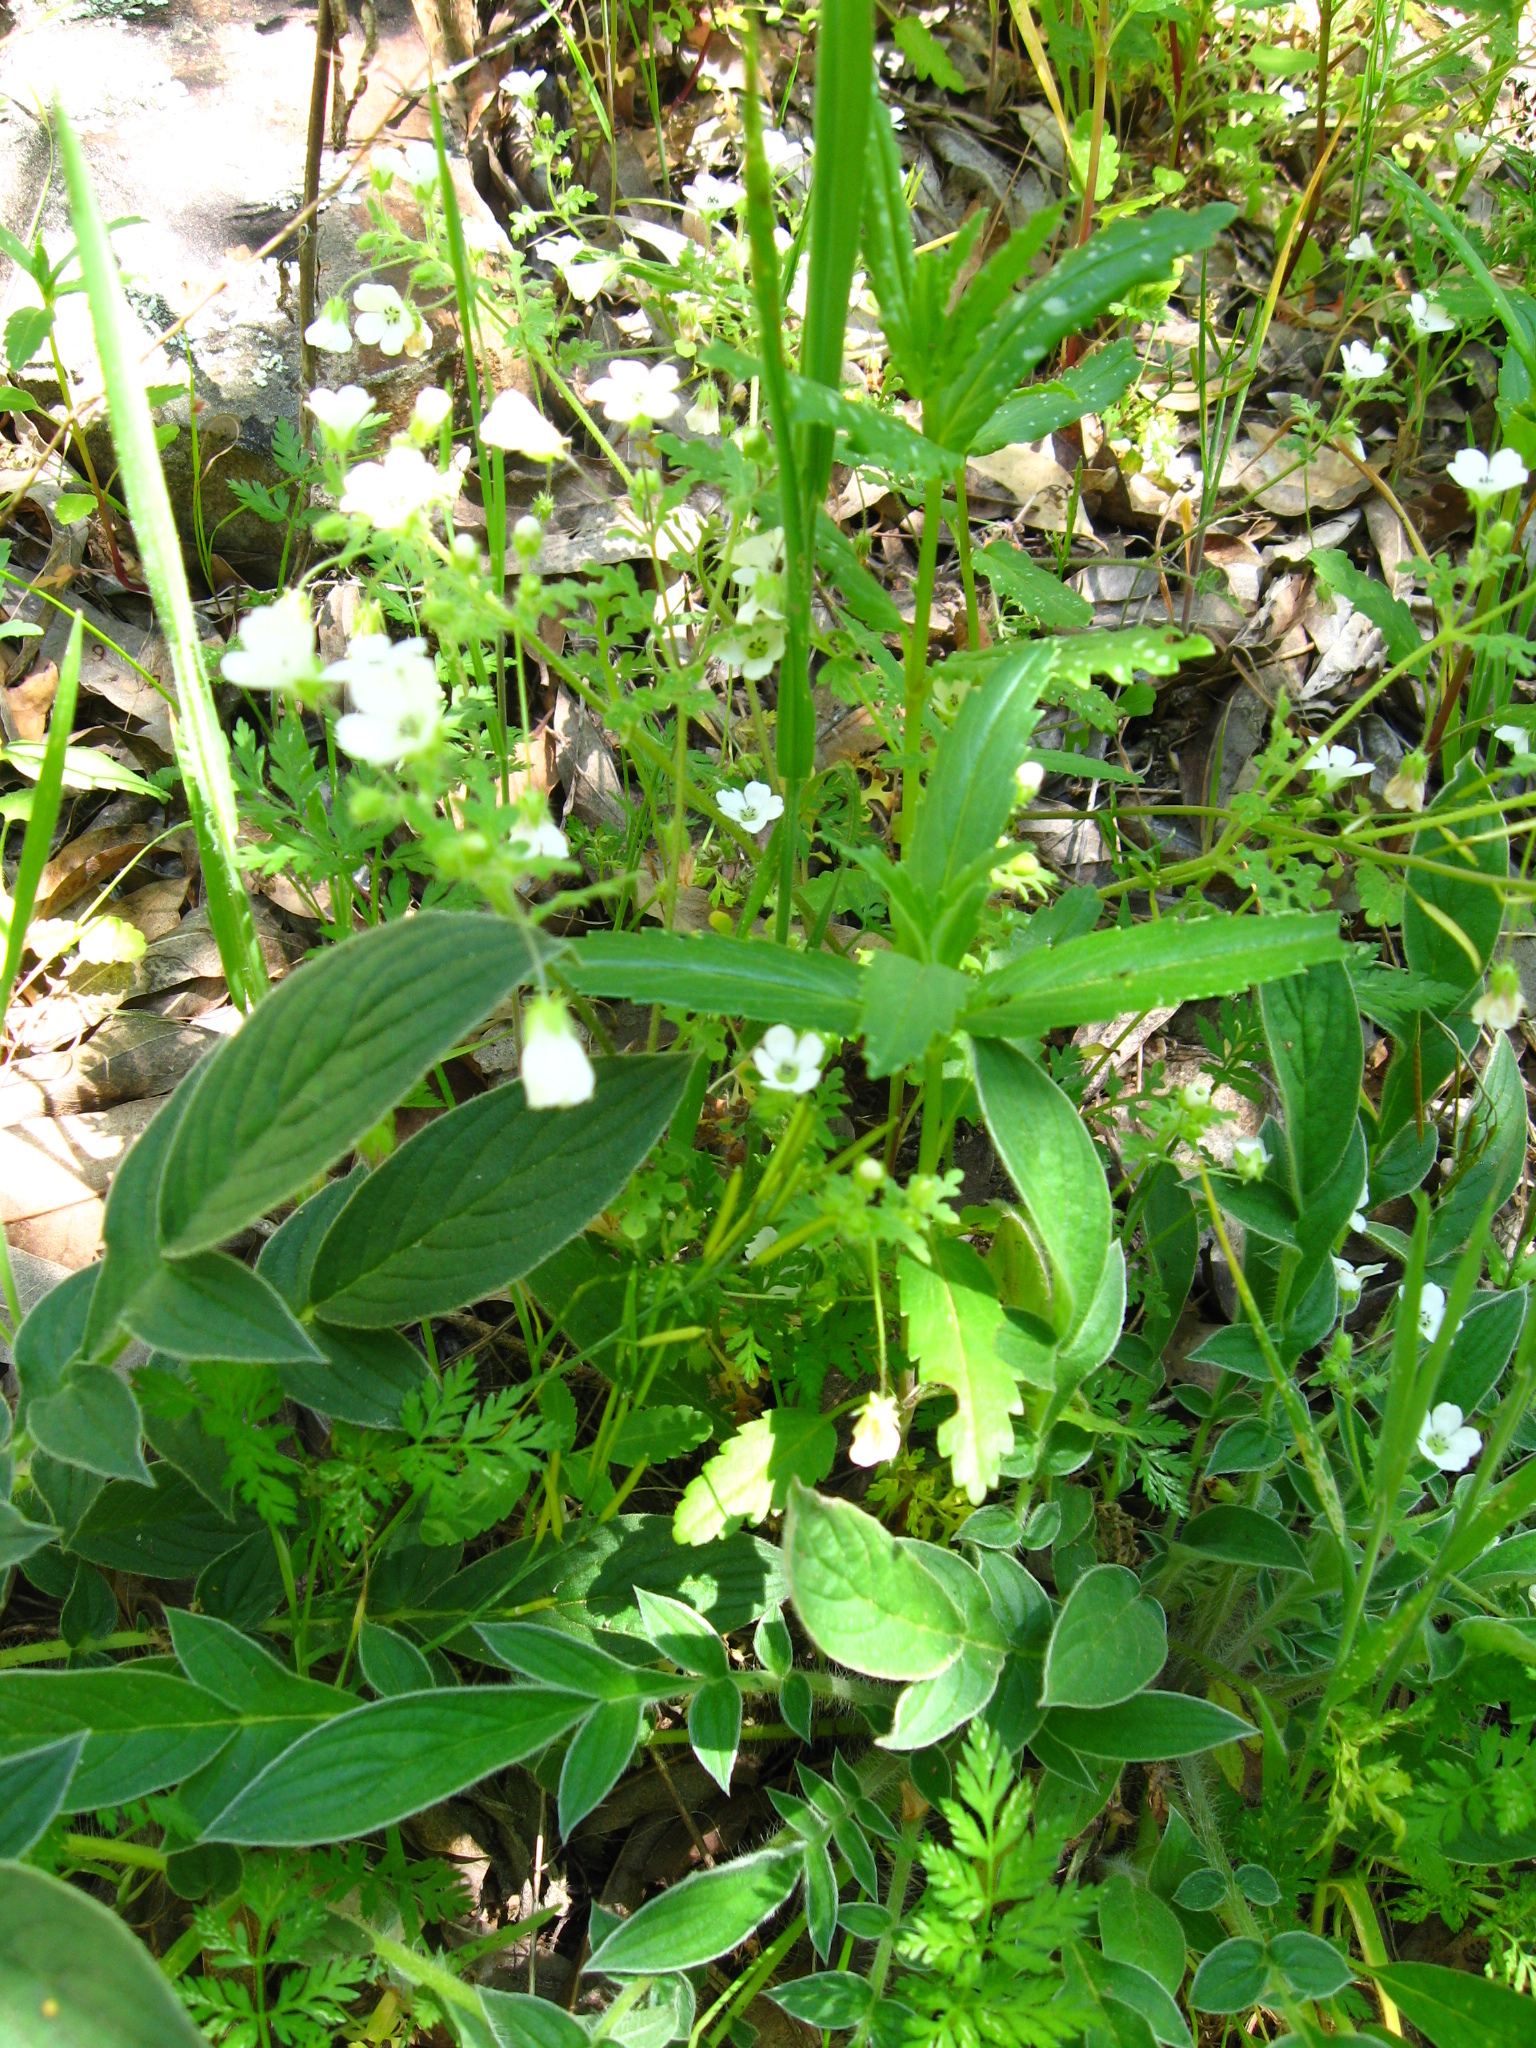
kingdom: Plantae
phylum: Tracheophyta
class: Magnoliopsida
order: Boraginales
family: Hydrophyllaceae
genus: Nemophila
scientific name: Nemophila heterophylla
